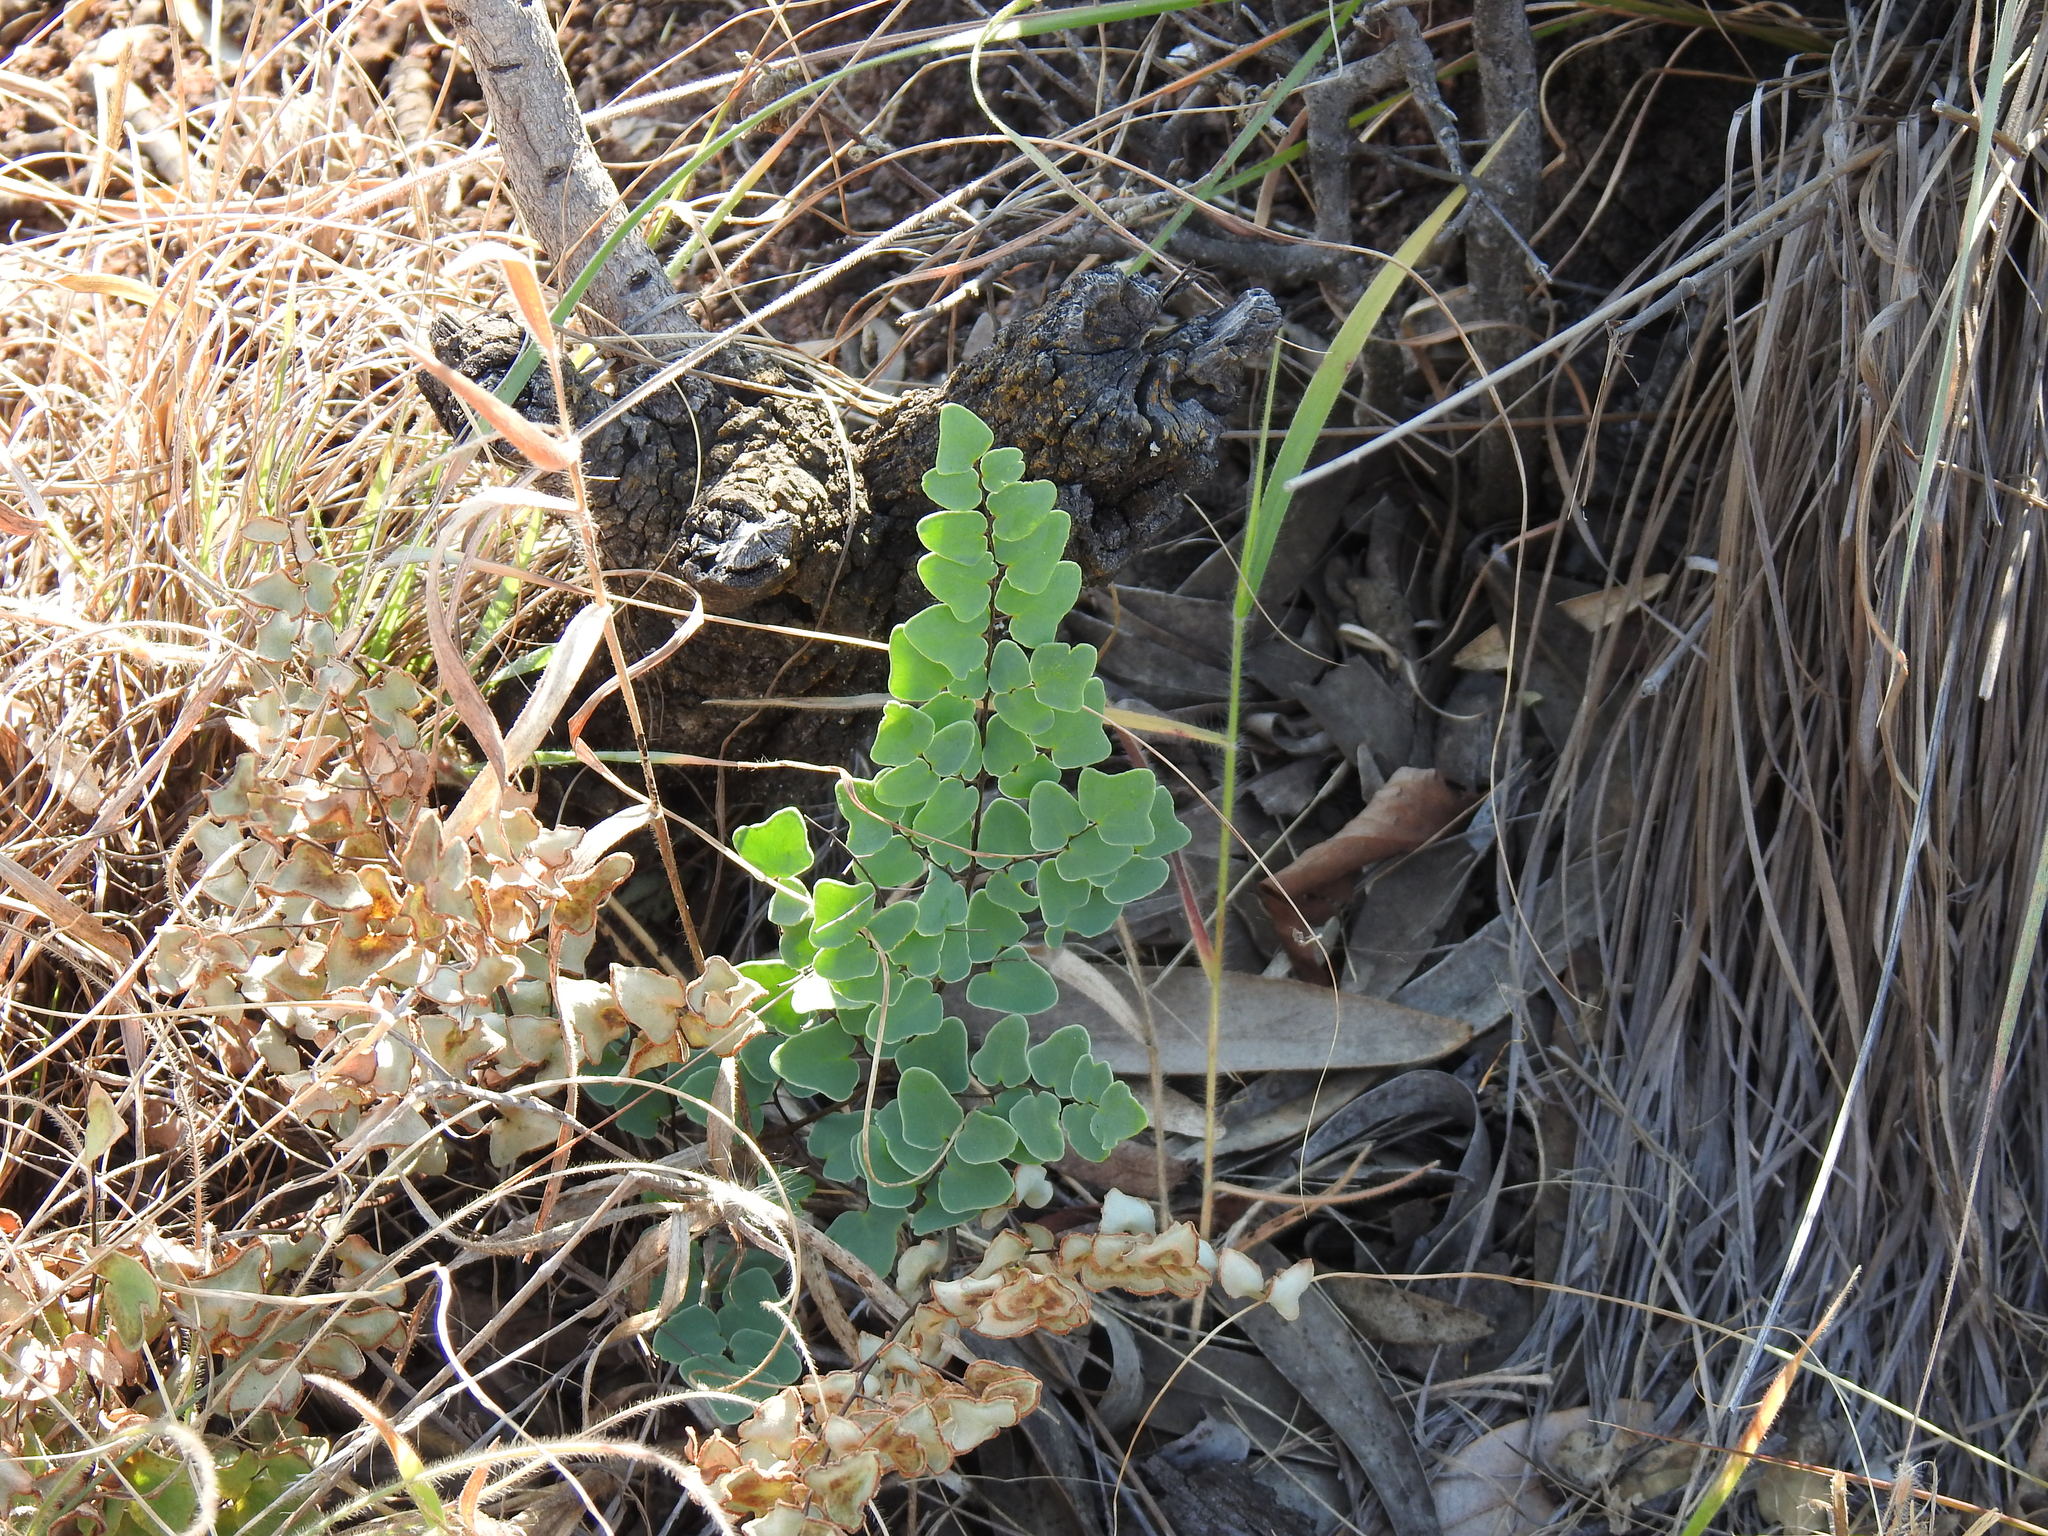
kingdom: Plantae
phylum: Tracheophyta
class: Polypodiopsida
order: Polypodiales
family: Pteridaceae
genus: Pellaea
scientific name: Pellaea calomelanos
